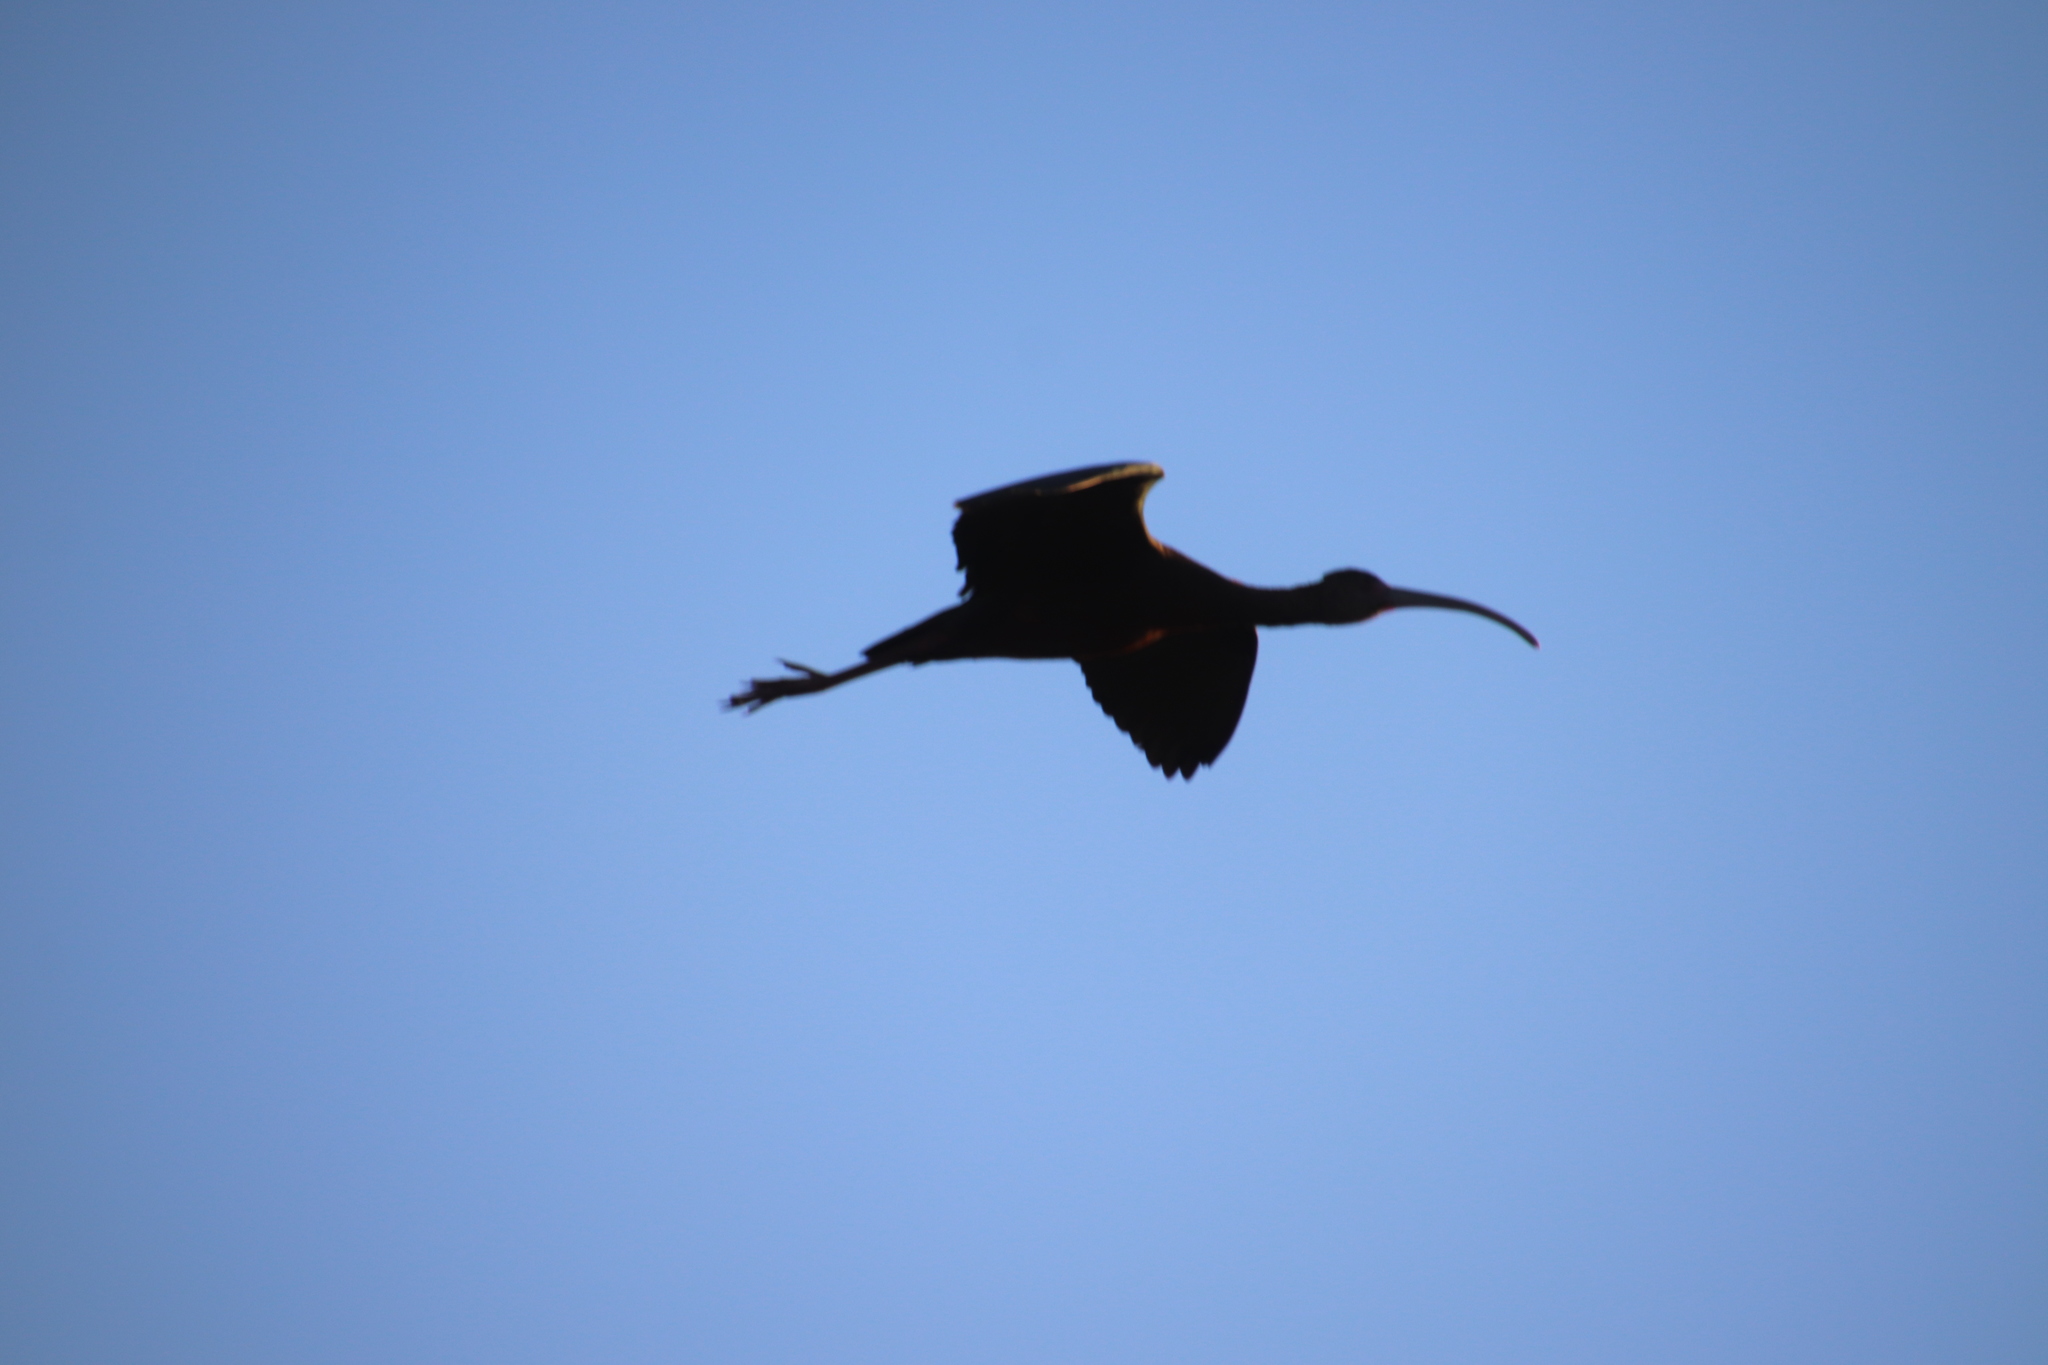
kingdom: Animalia
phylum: Chordata
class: Aves
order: Pelecaniformes
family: Threskiornithidae
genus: Plegadis
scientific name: Plegadis chihi
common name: White-faced ibis
